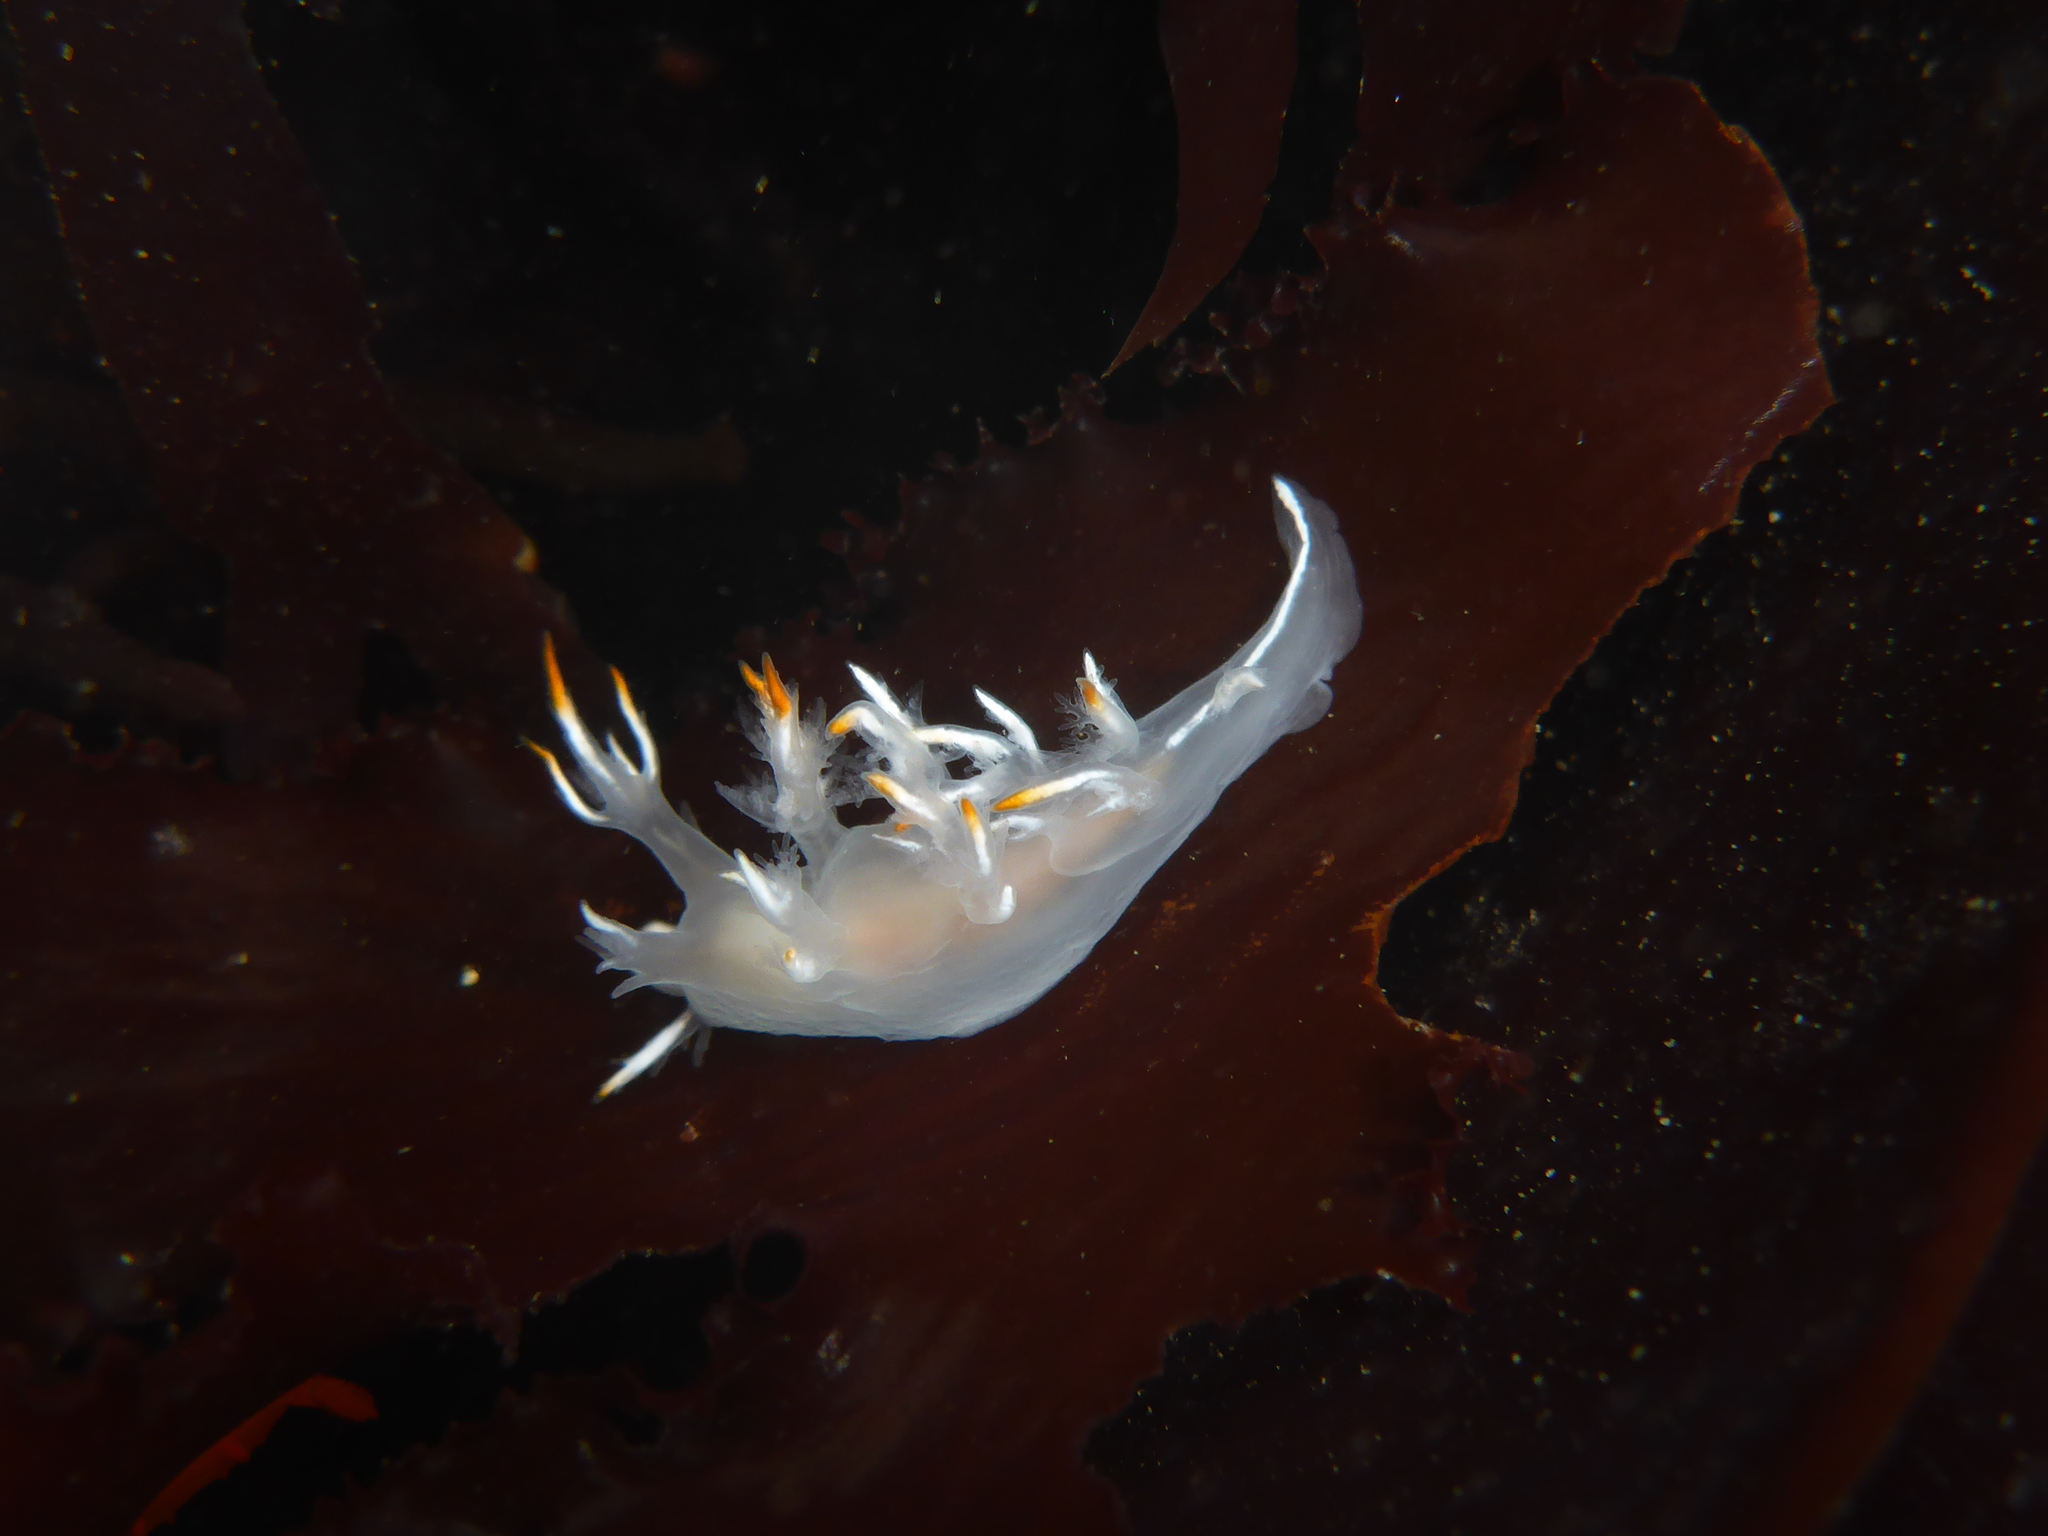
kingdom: Animalia
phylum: Mollusca
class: Gastropoda
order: Nudibranchia
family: Dendronotidae
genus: Dendronotus
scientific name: Dendronotus albus
